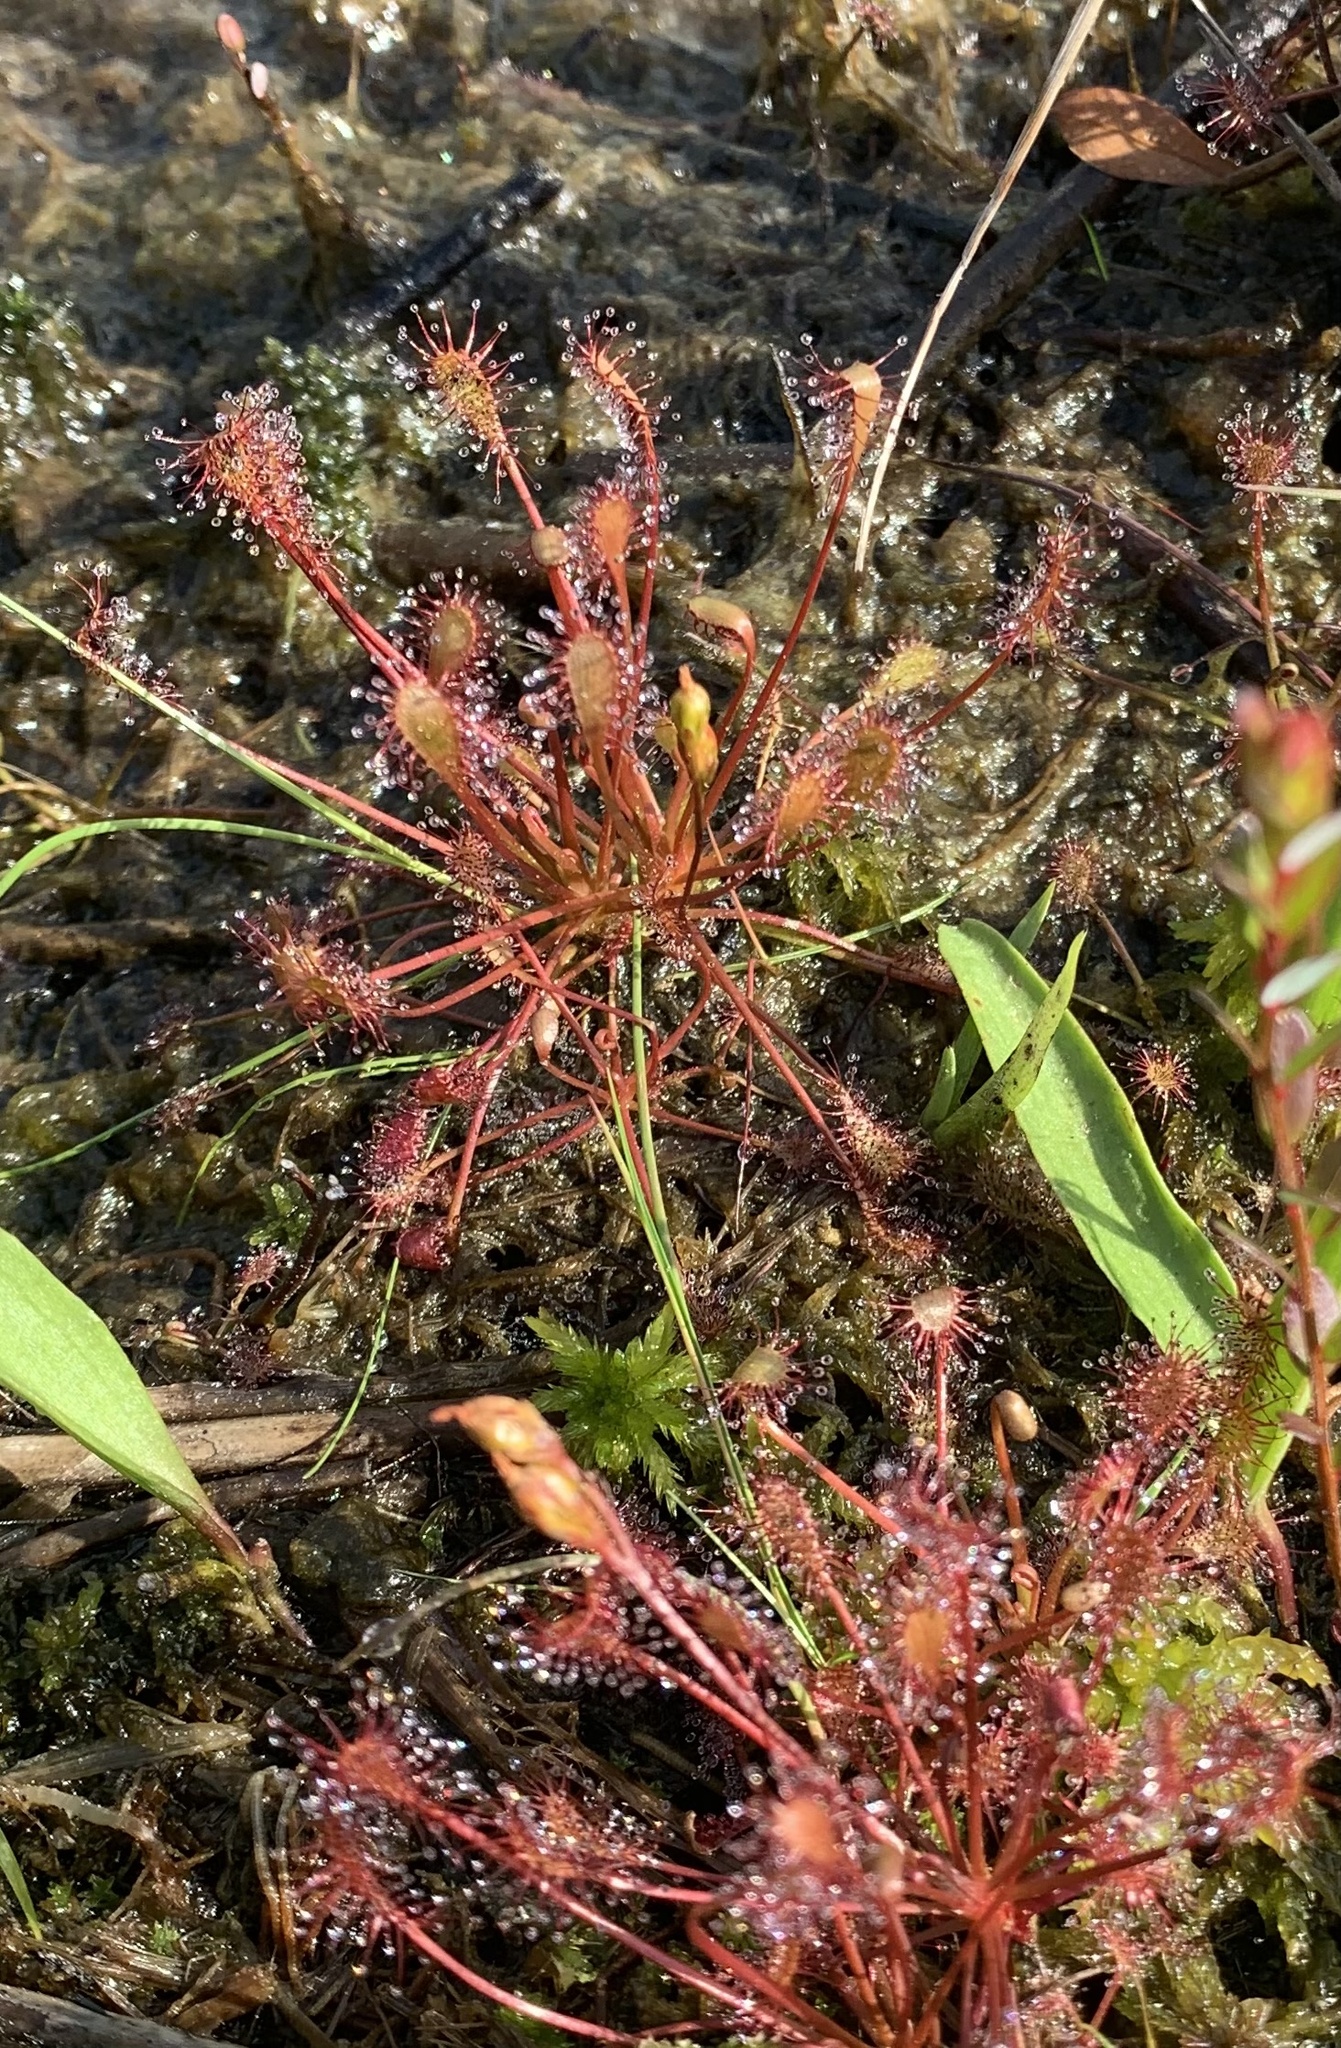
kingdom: Plantae
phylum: Tracheophyta
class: Magnoliopsida
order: Caryophyllales
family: Droseraceae
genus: Drosera
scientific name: Drosera intermedia
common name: Oblong-leaved sundew
